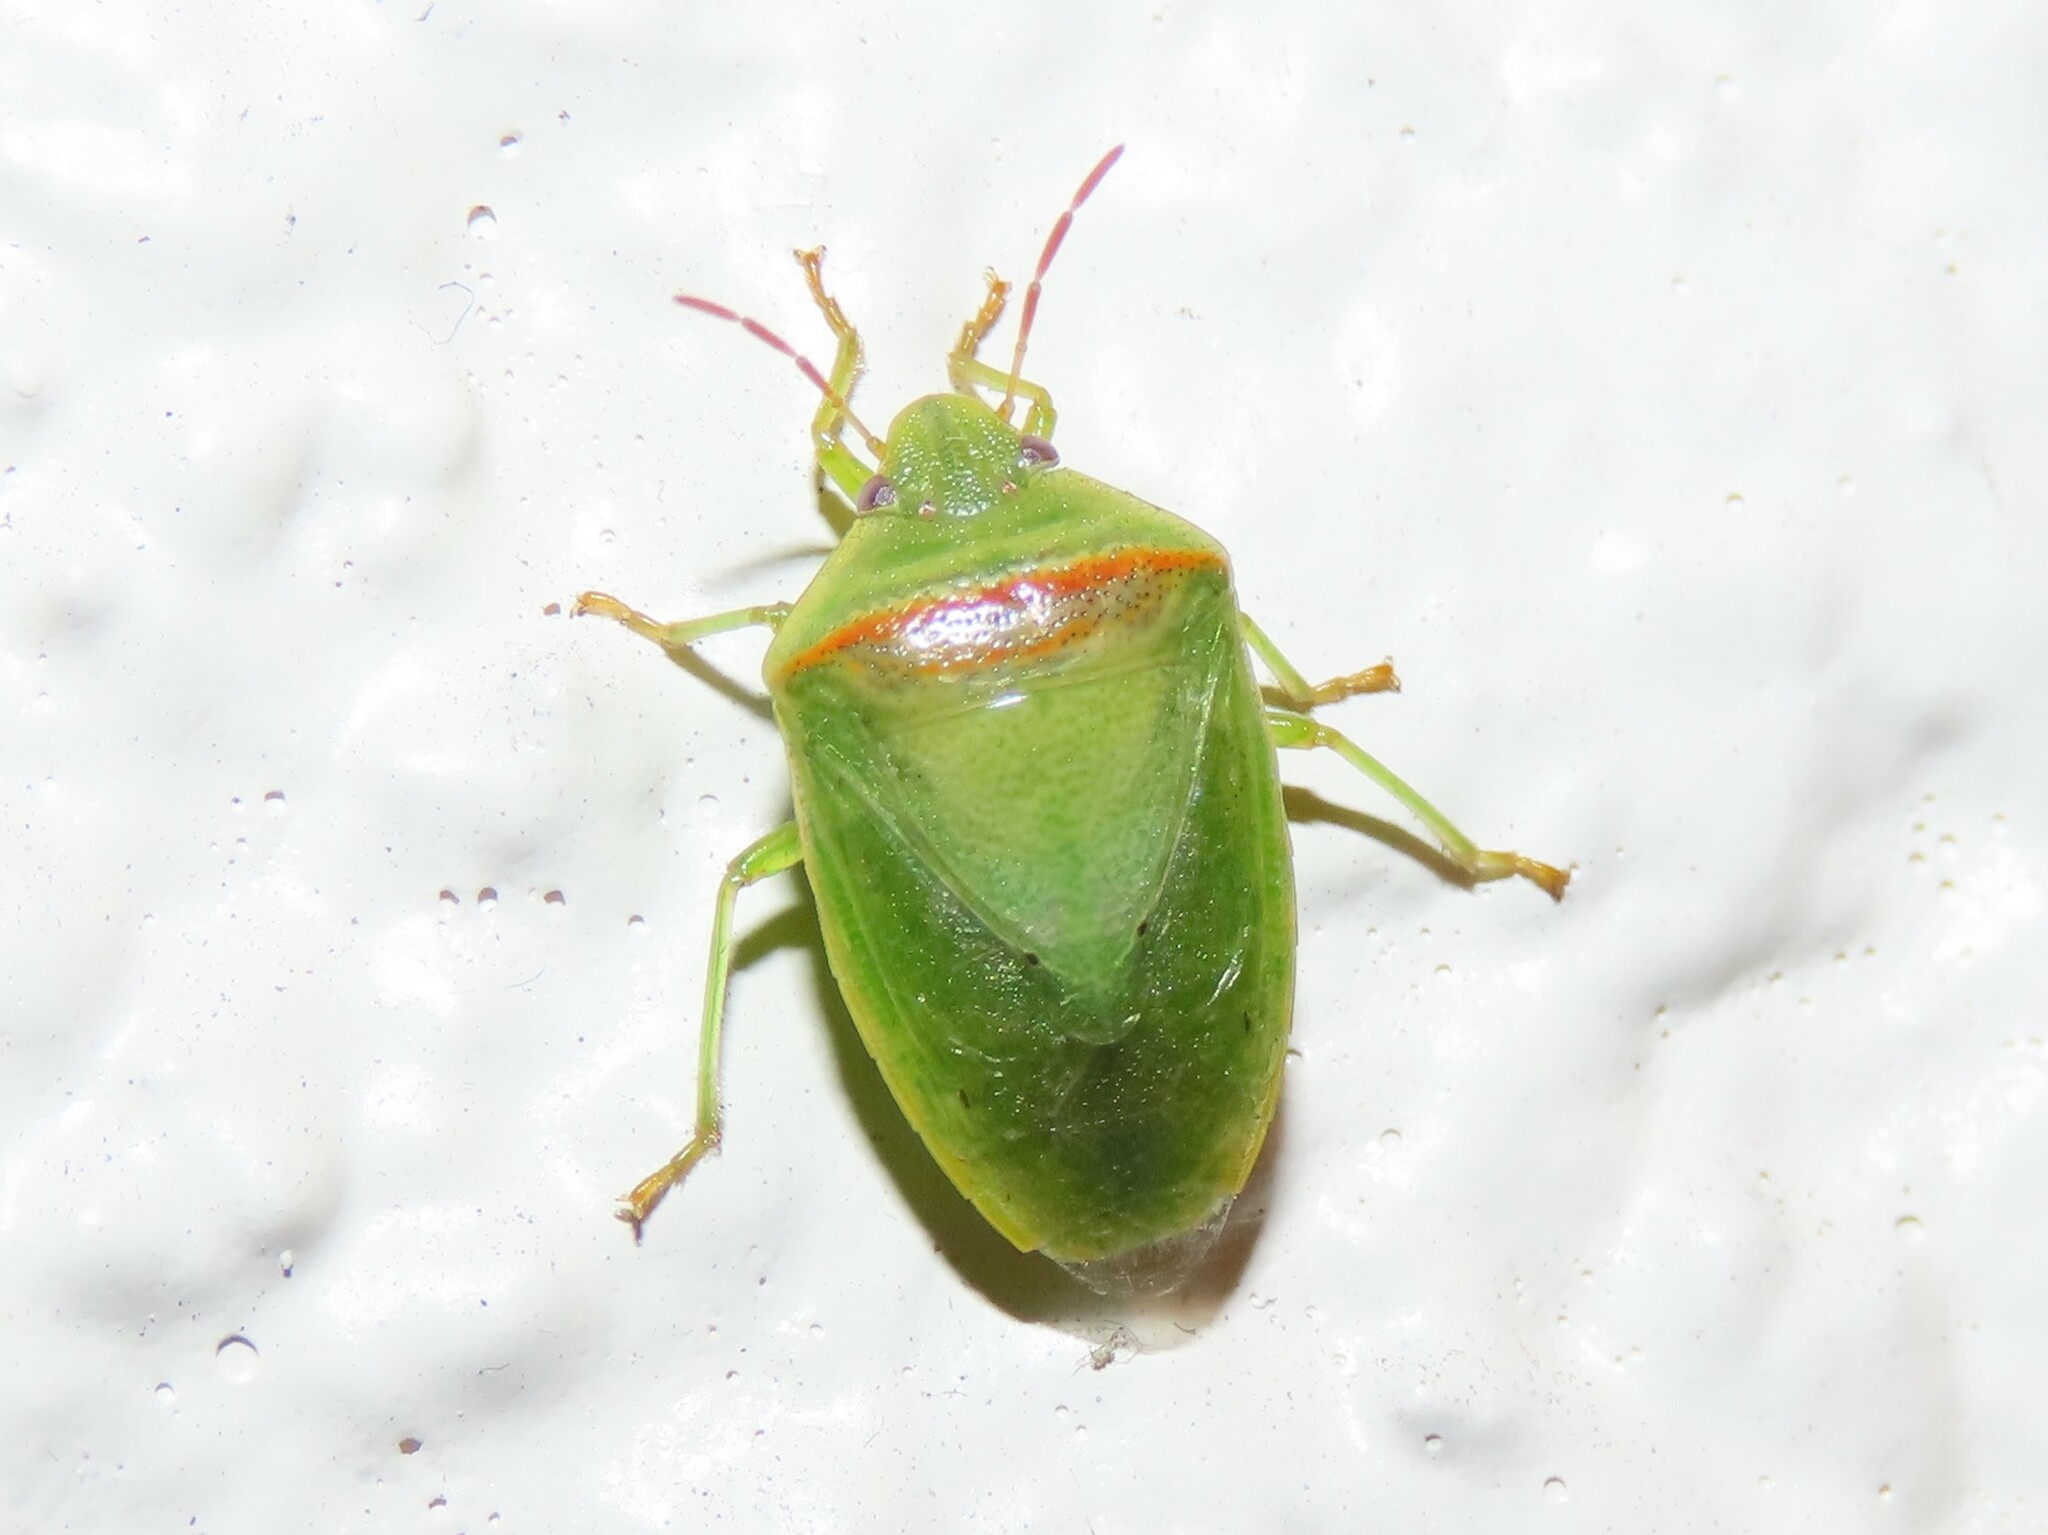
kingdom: Animalia
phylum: Arthropoda
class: Insecta
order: Hemiptera
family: Pentatomidae
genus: Piezodorus
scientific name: Piezodorus guildinii
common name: Redbanded stink bug
